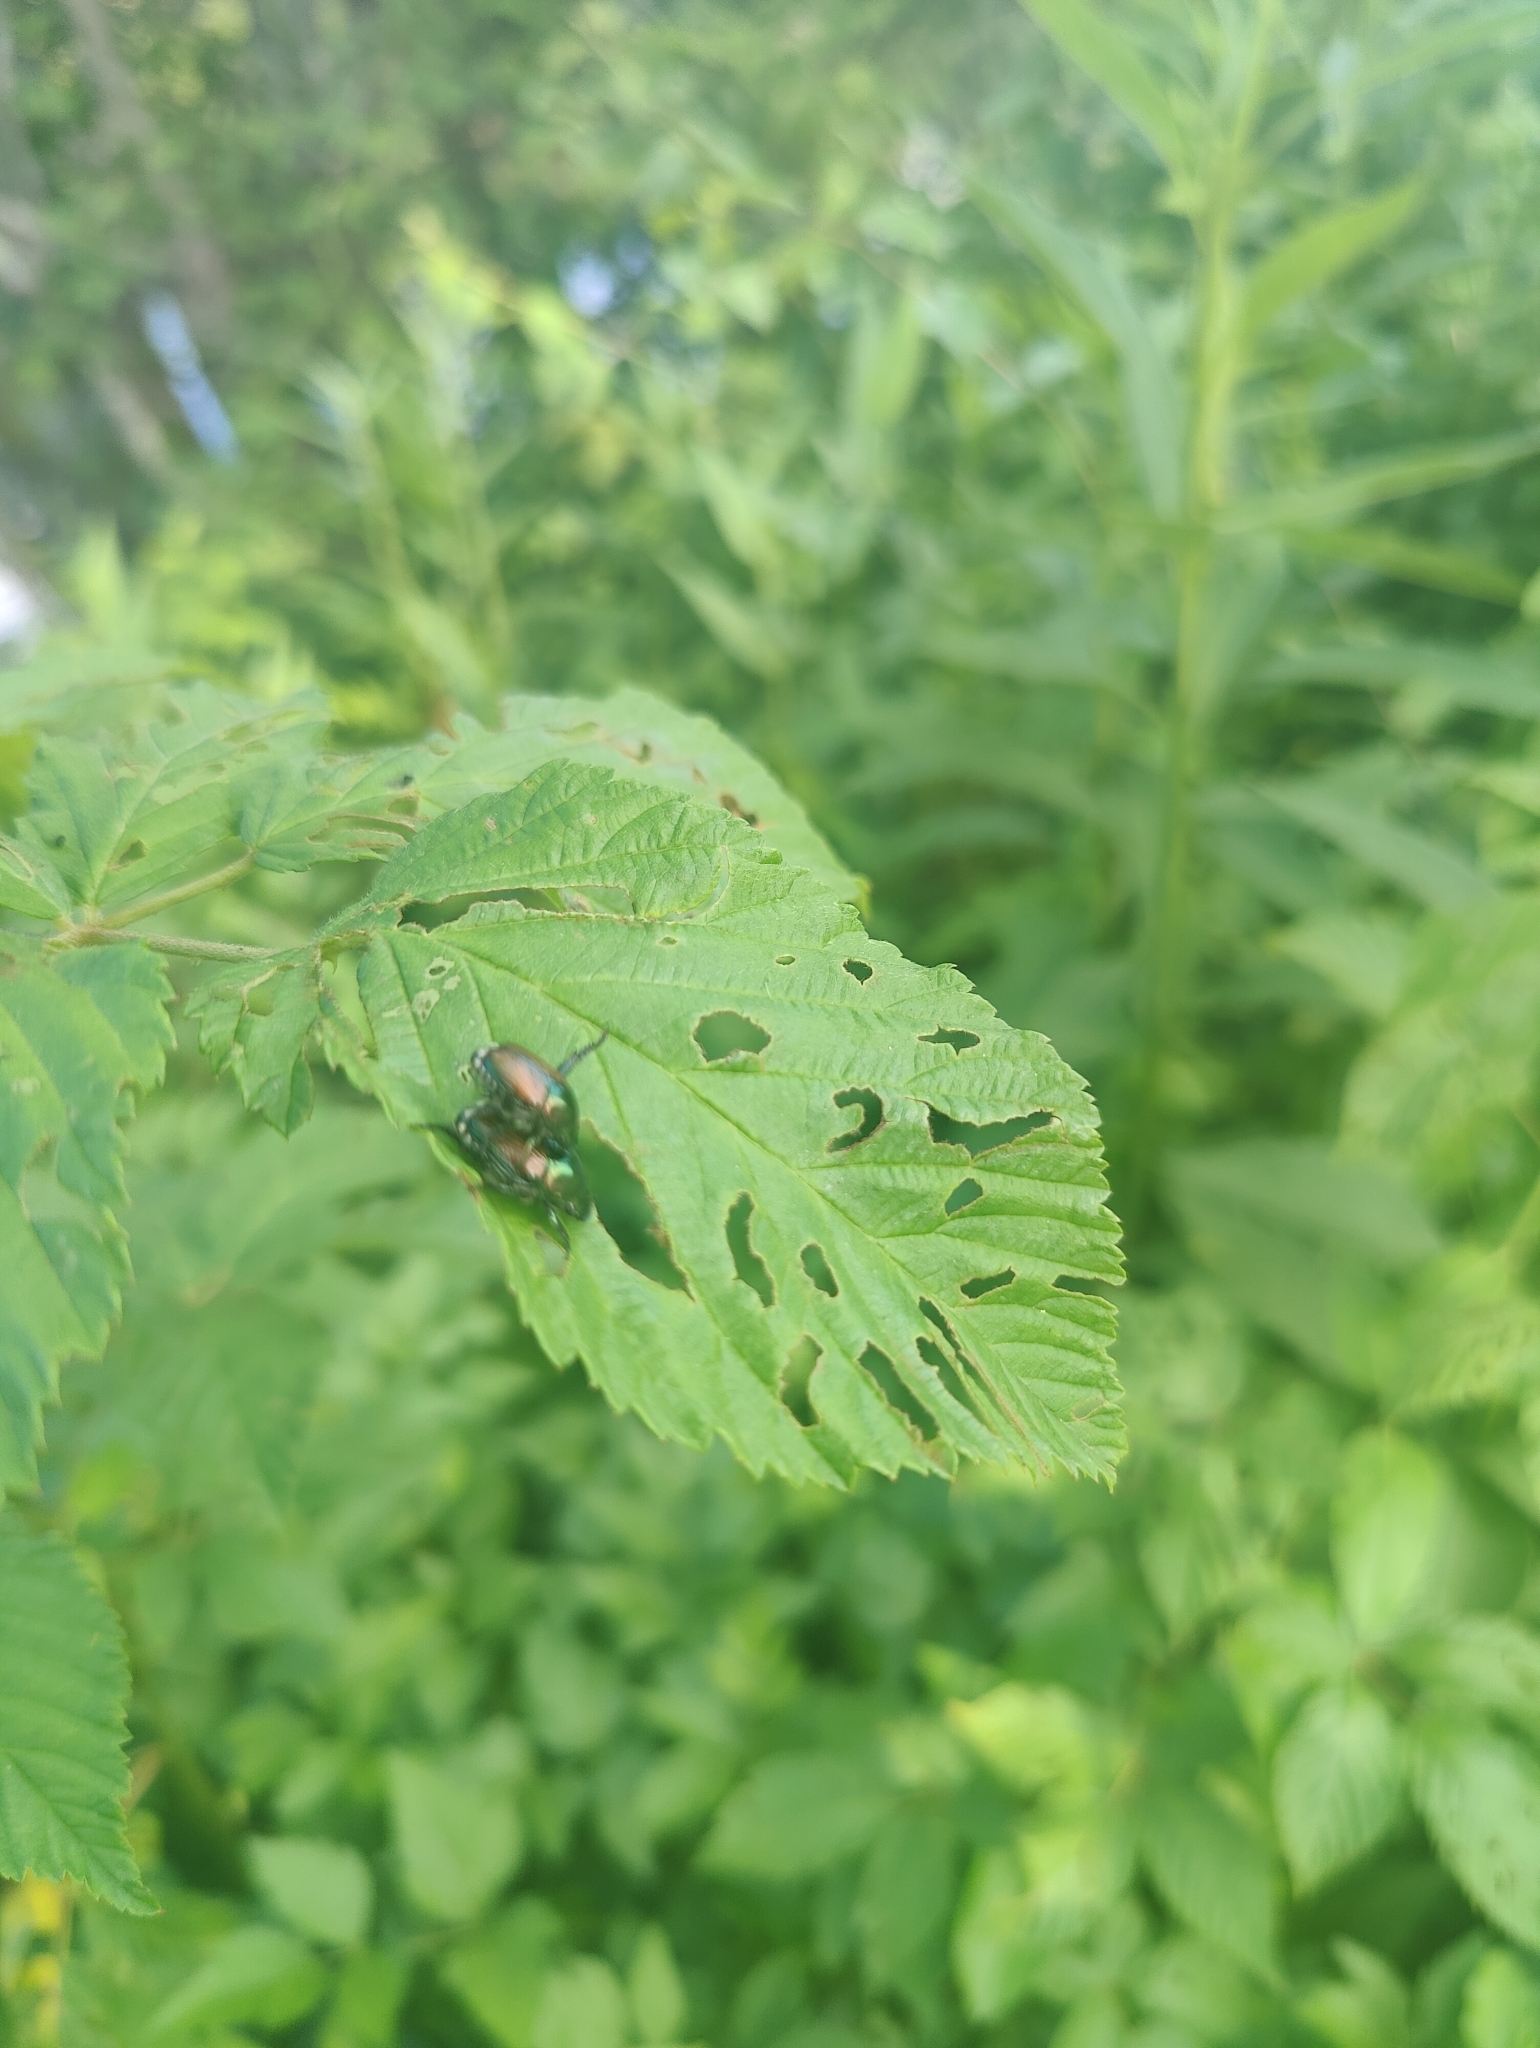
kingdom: Animalia
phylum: Arthropoda
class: Insecta
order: Coleoptera
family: Scarabaeidae
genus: Popillia
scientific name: Popillia japonica
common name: Japanese beetle
